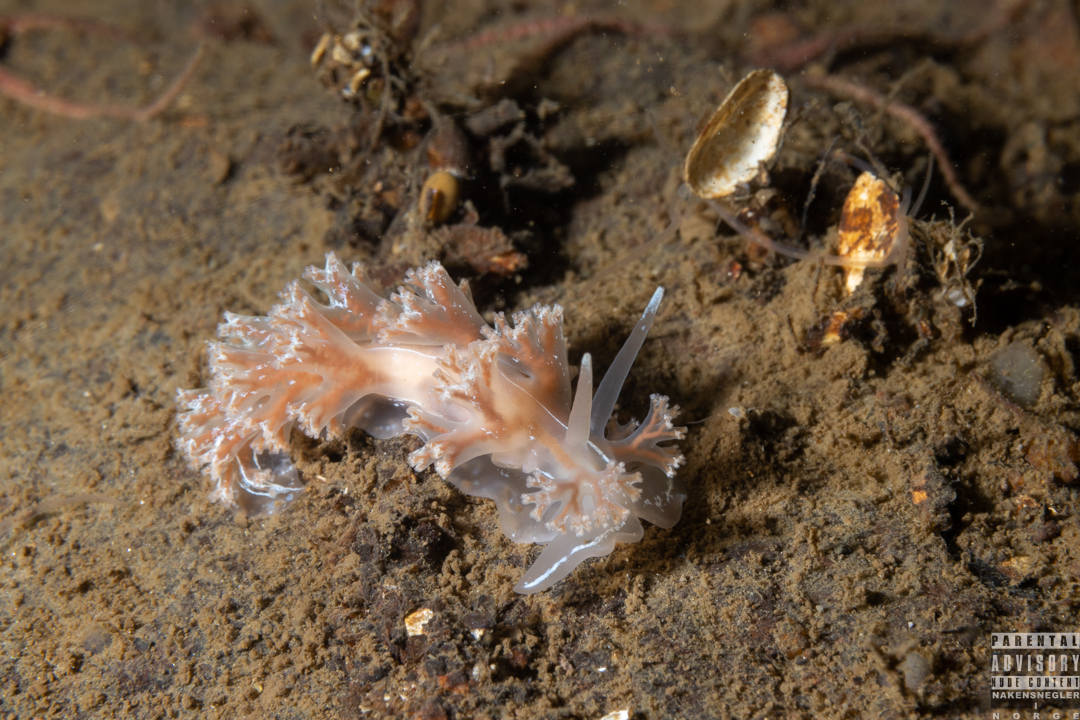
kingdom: Animalia
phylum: Mollusca
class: Gastropoda
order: Nudibranchia
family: Heroidae
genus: Hero
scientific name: Hero formosa
